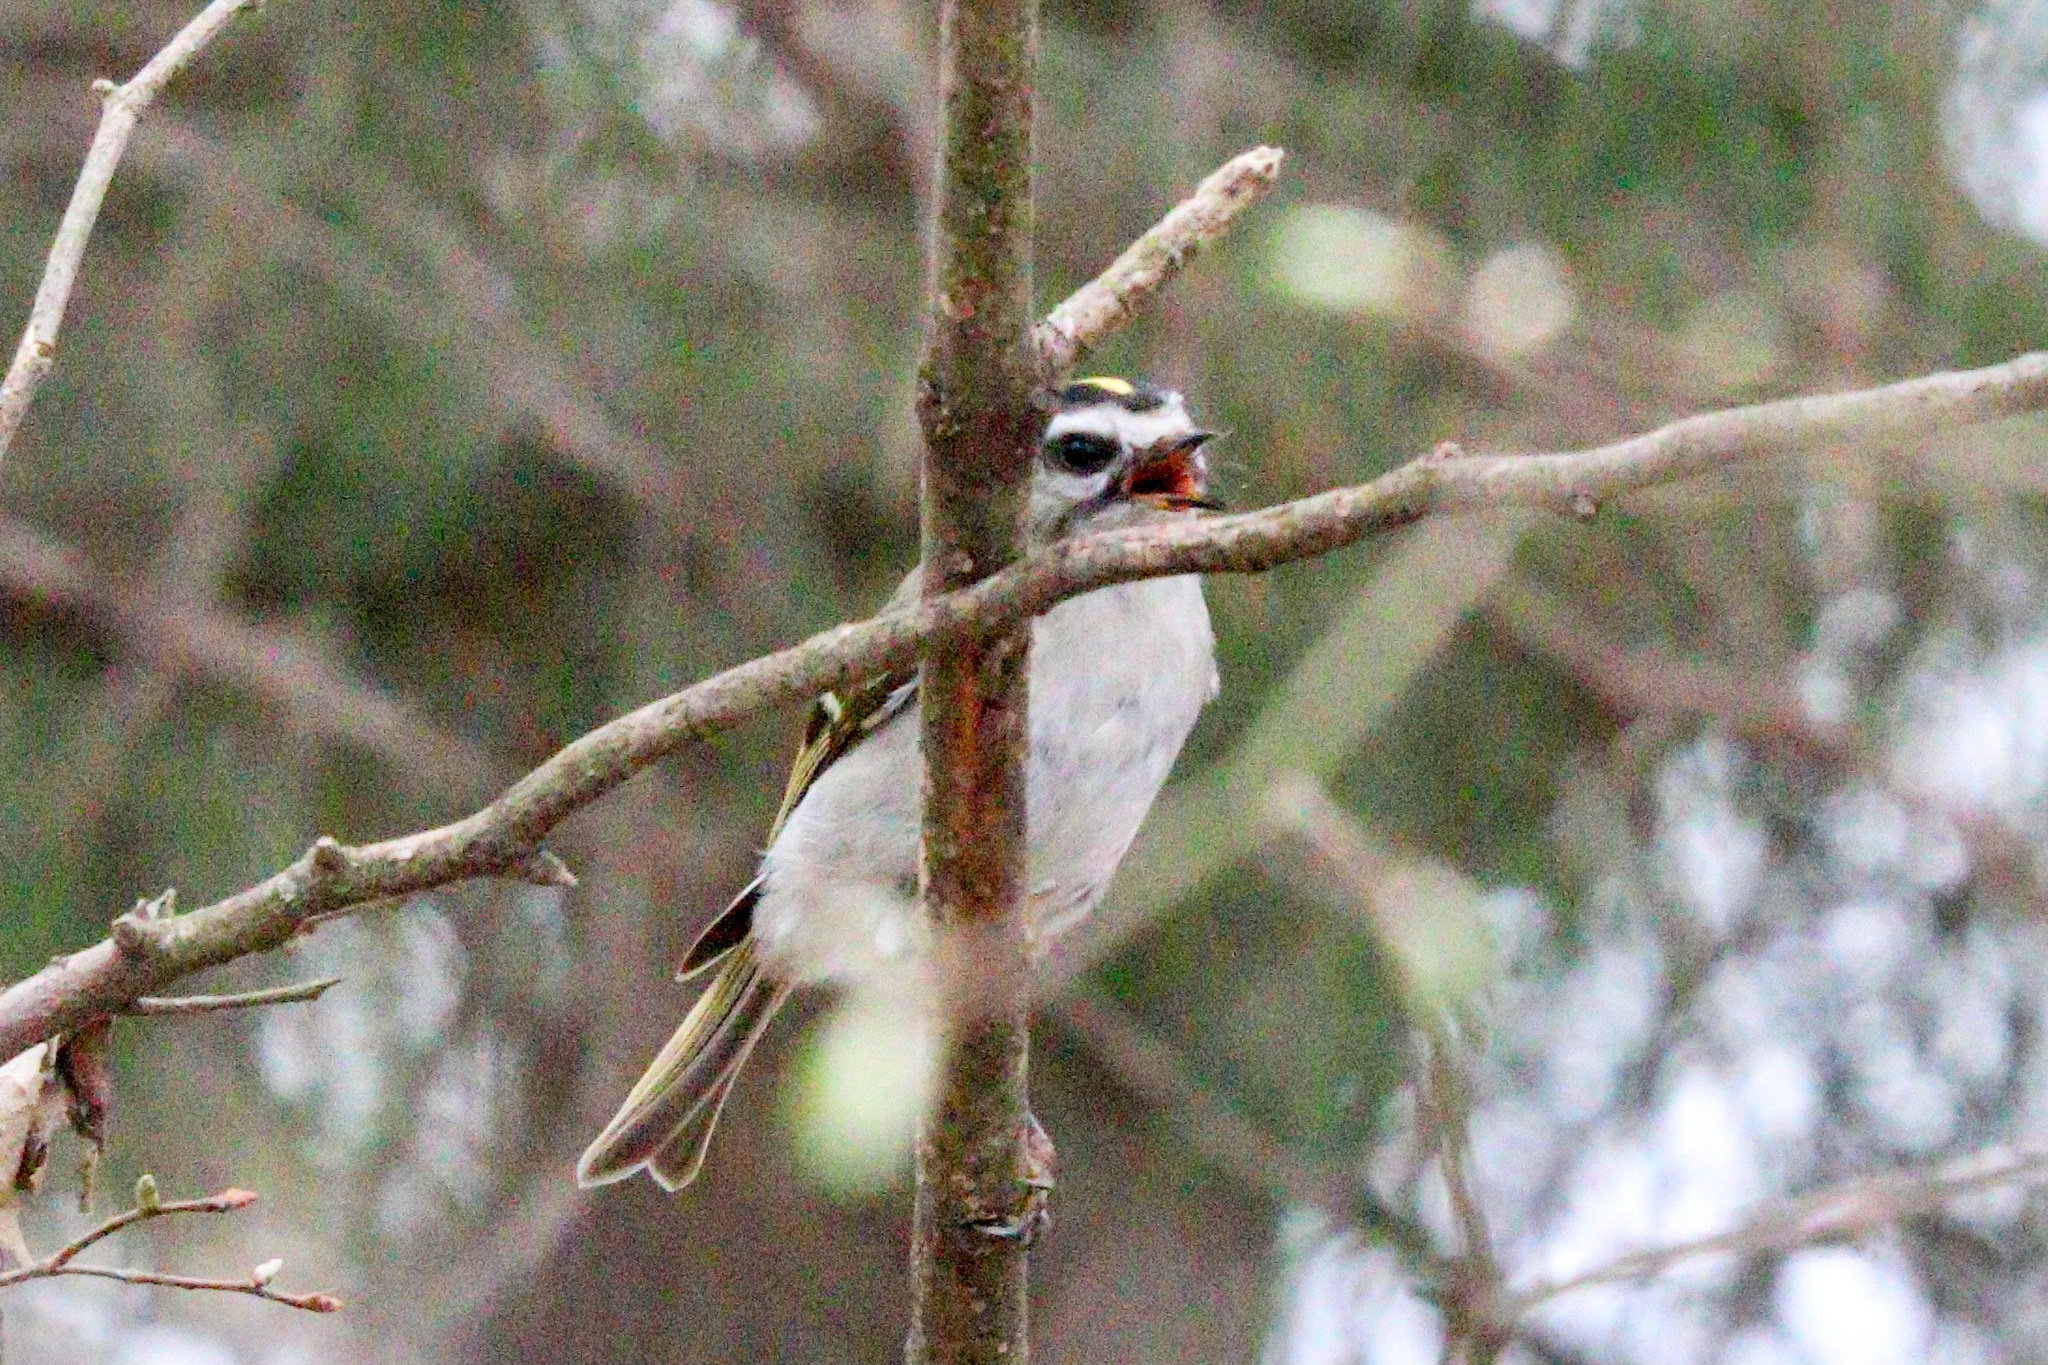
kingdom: Animalia
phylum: Chordata
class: Aves
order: Passeriformes
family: Regulidae
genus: Regulus
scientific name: Regulus satrapa
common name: Golden-crowned kinglet
